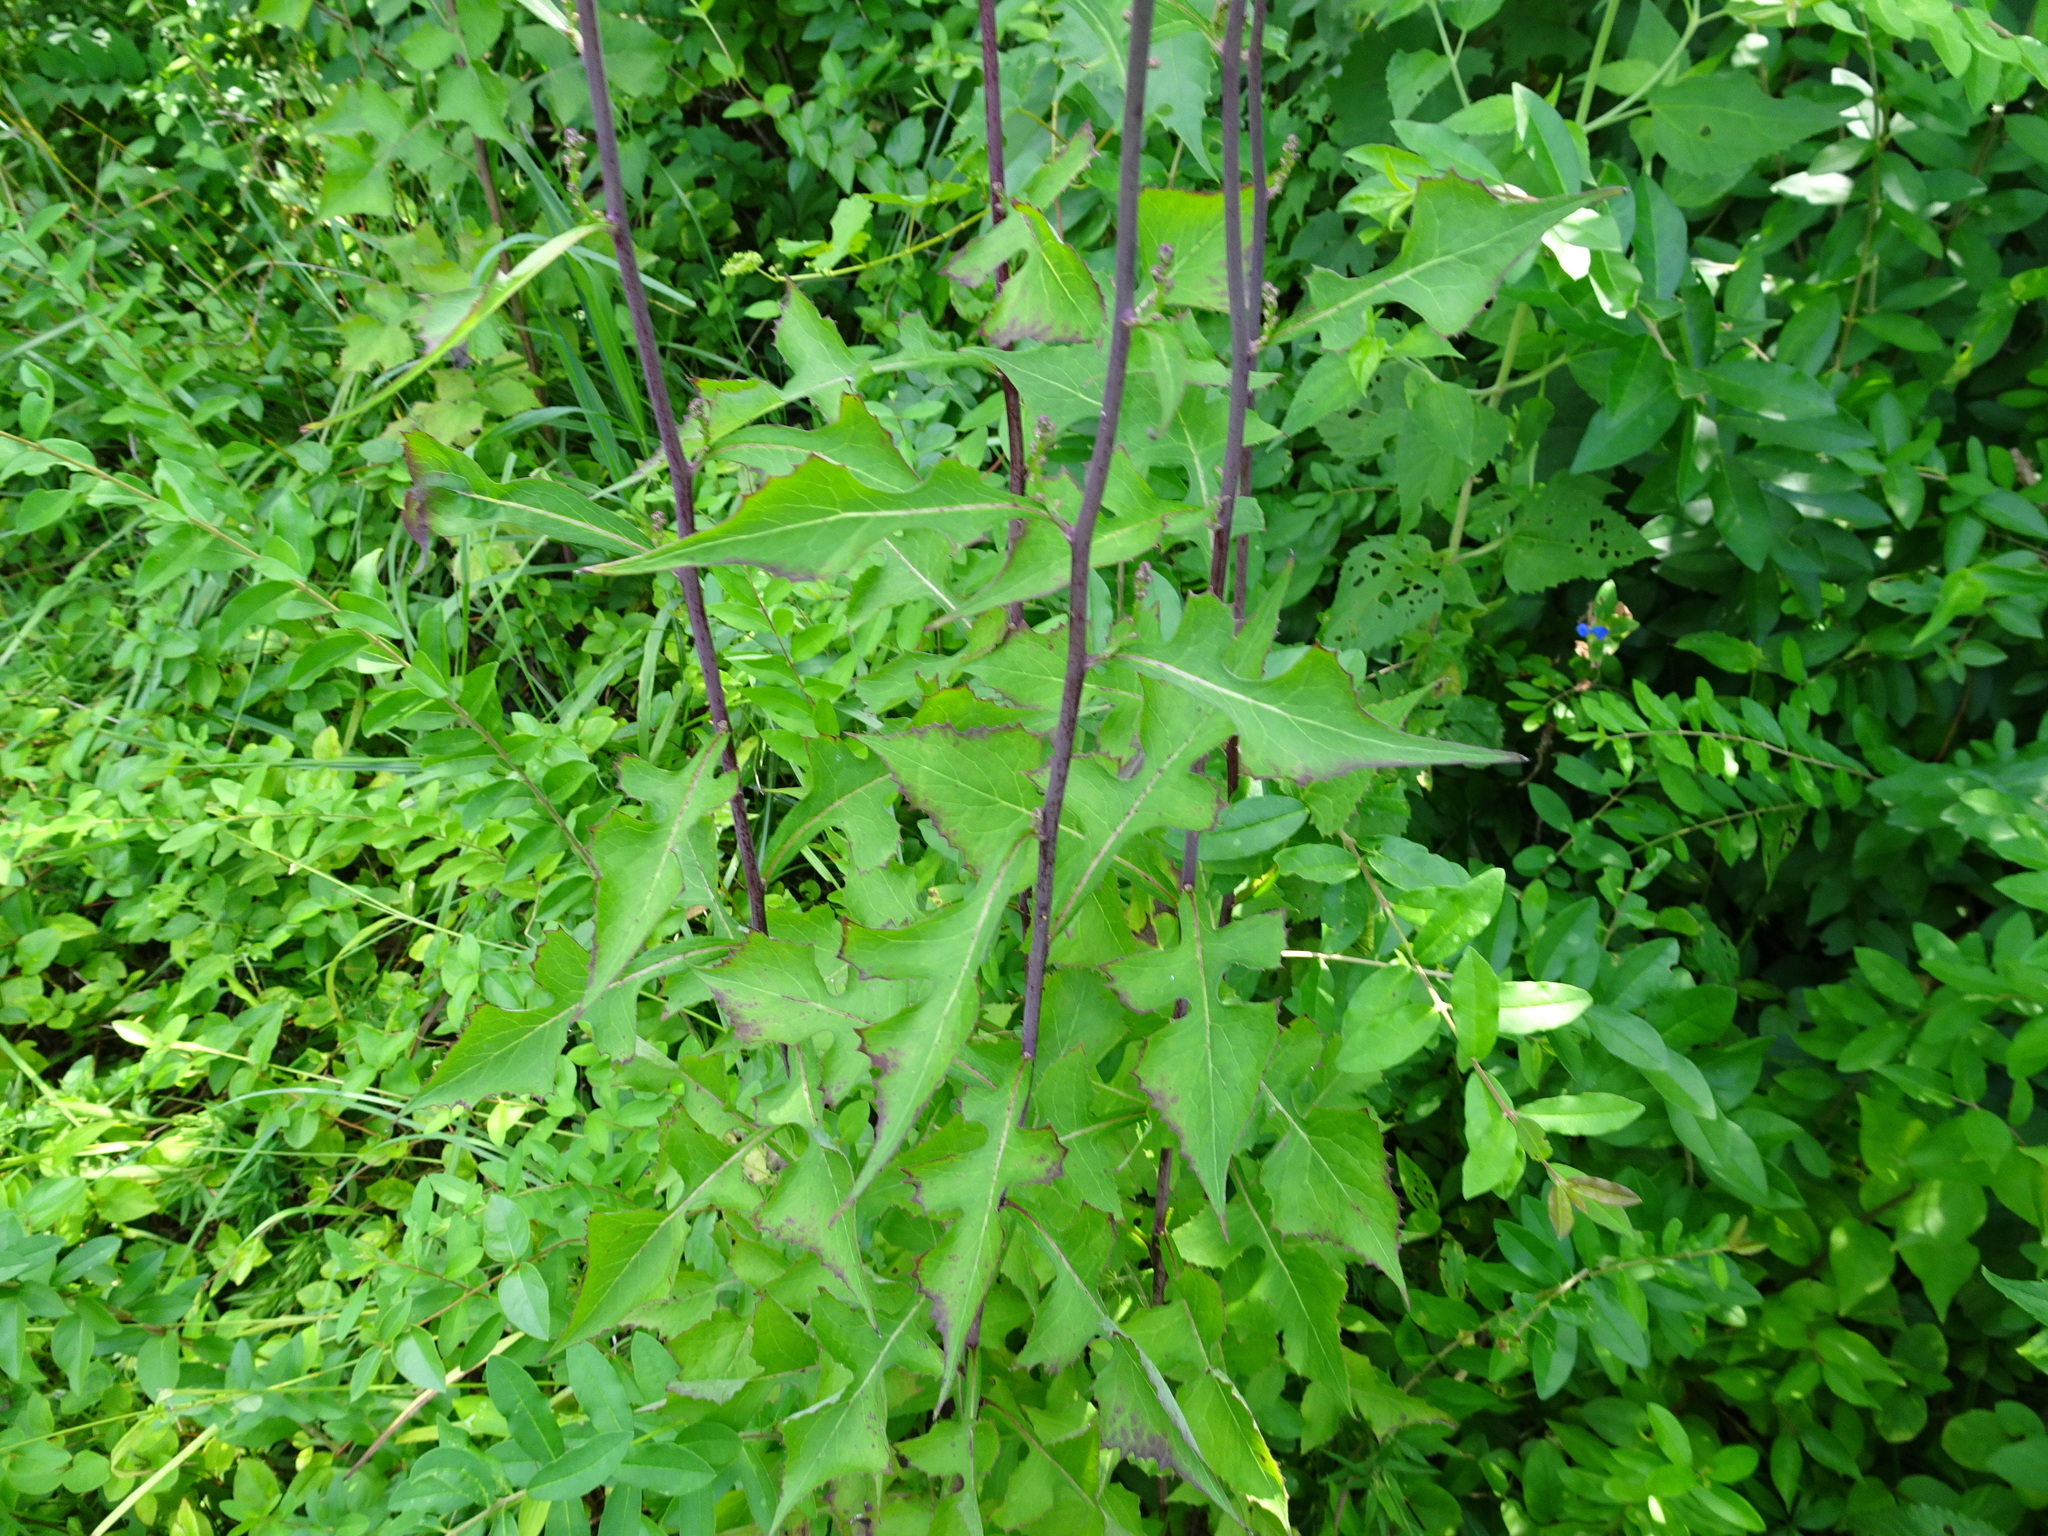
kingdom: Plantae
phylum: Tracheophyta
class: Magnoliopsida
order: Asterales
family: Asteraceae
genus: Lactuca
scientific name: Lactuca floridana
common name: Woodland lettuce
